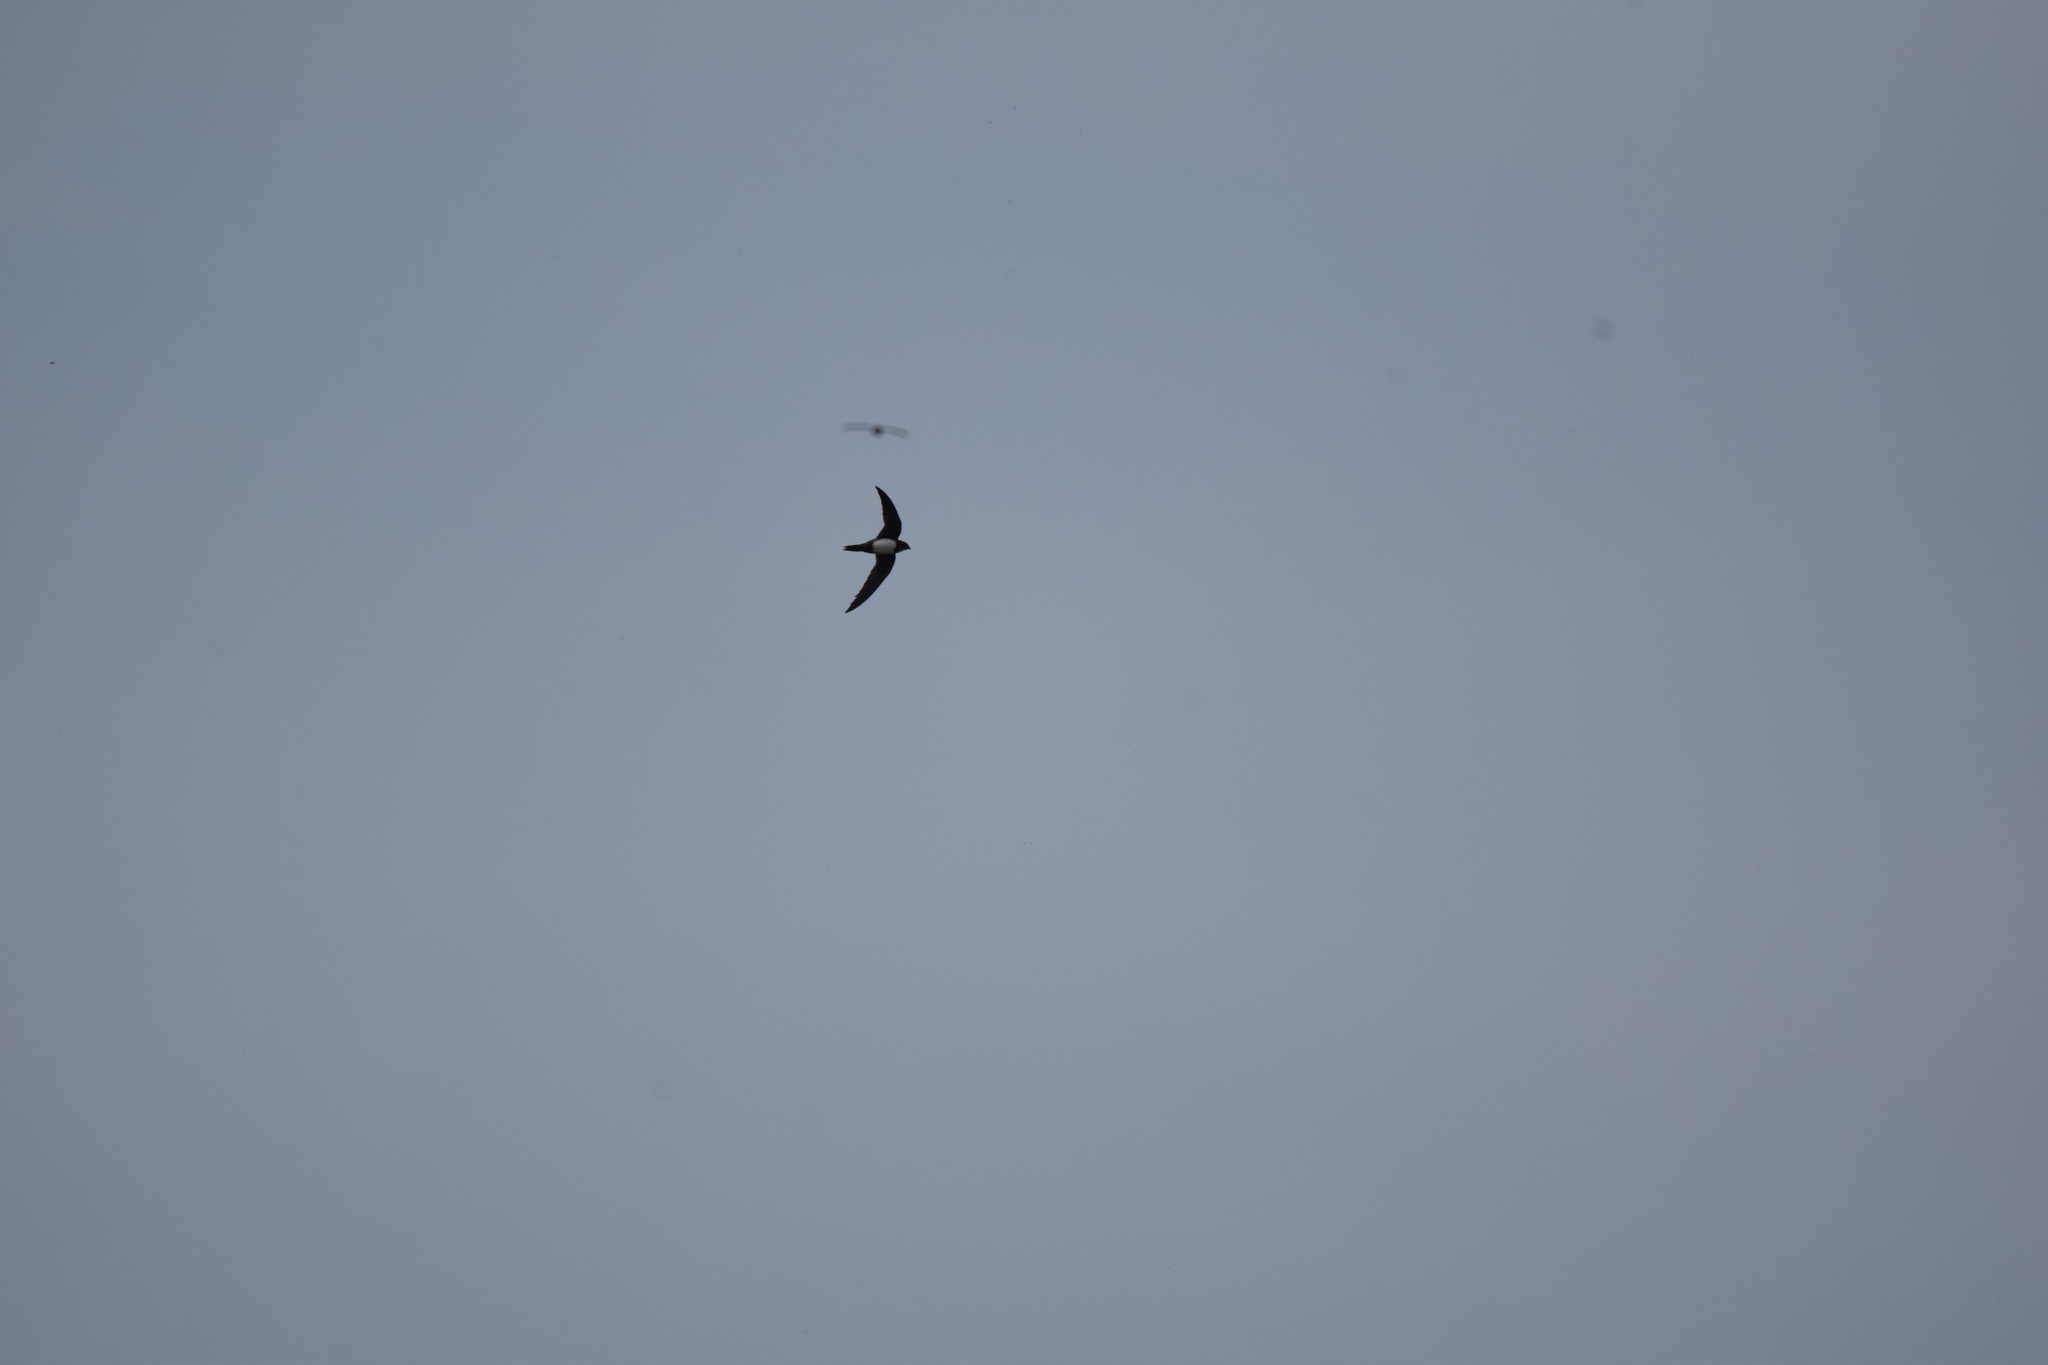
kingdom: Animalia
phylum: Chordata
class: Aves
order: Apodiformes
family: Apodidae
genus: Tachymarptis
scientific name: Tachymarptis melba
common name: Alpine swift
